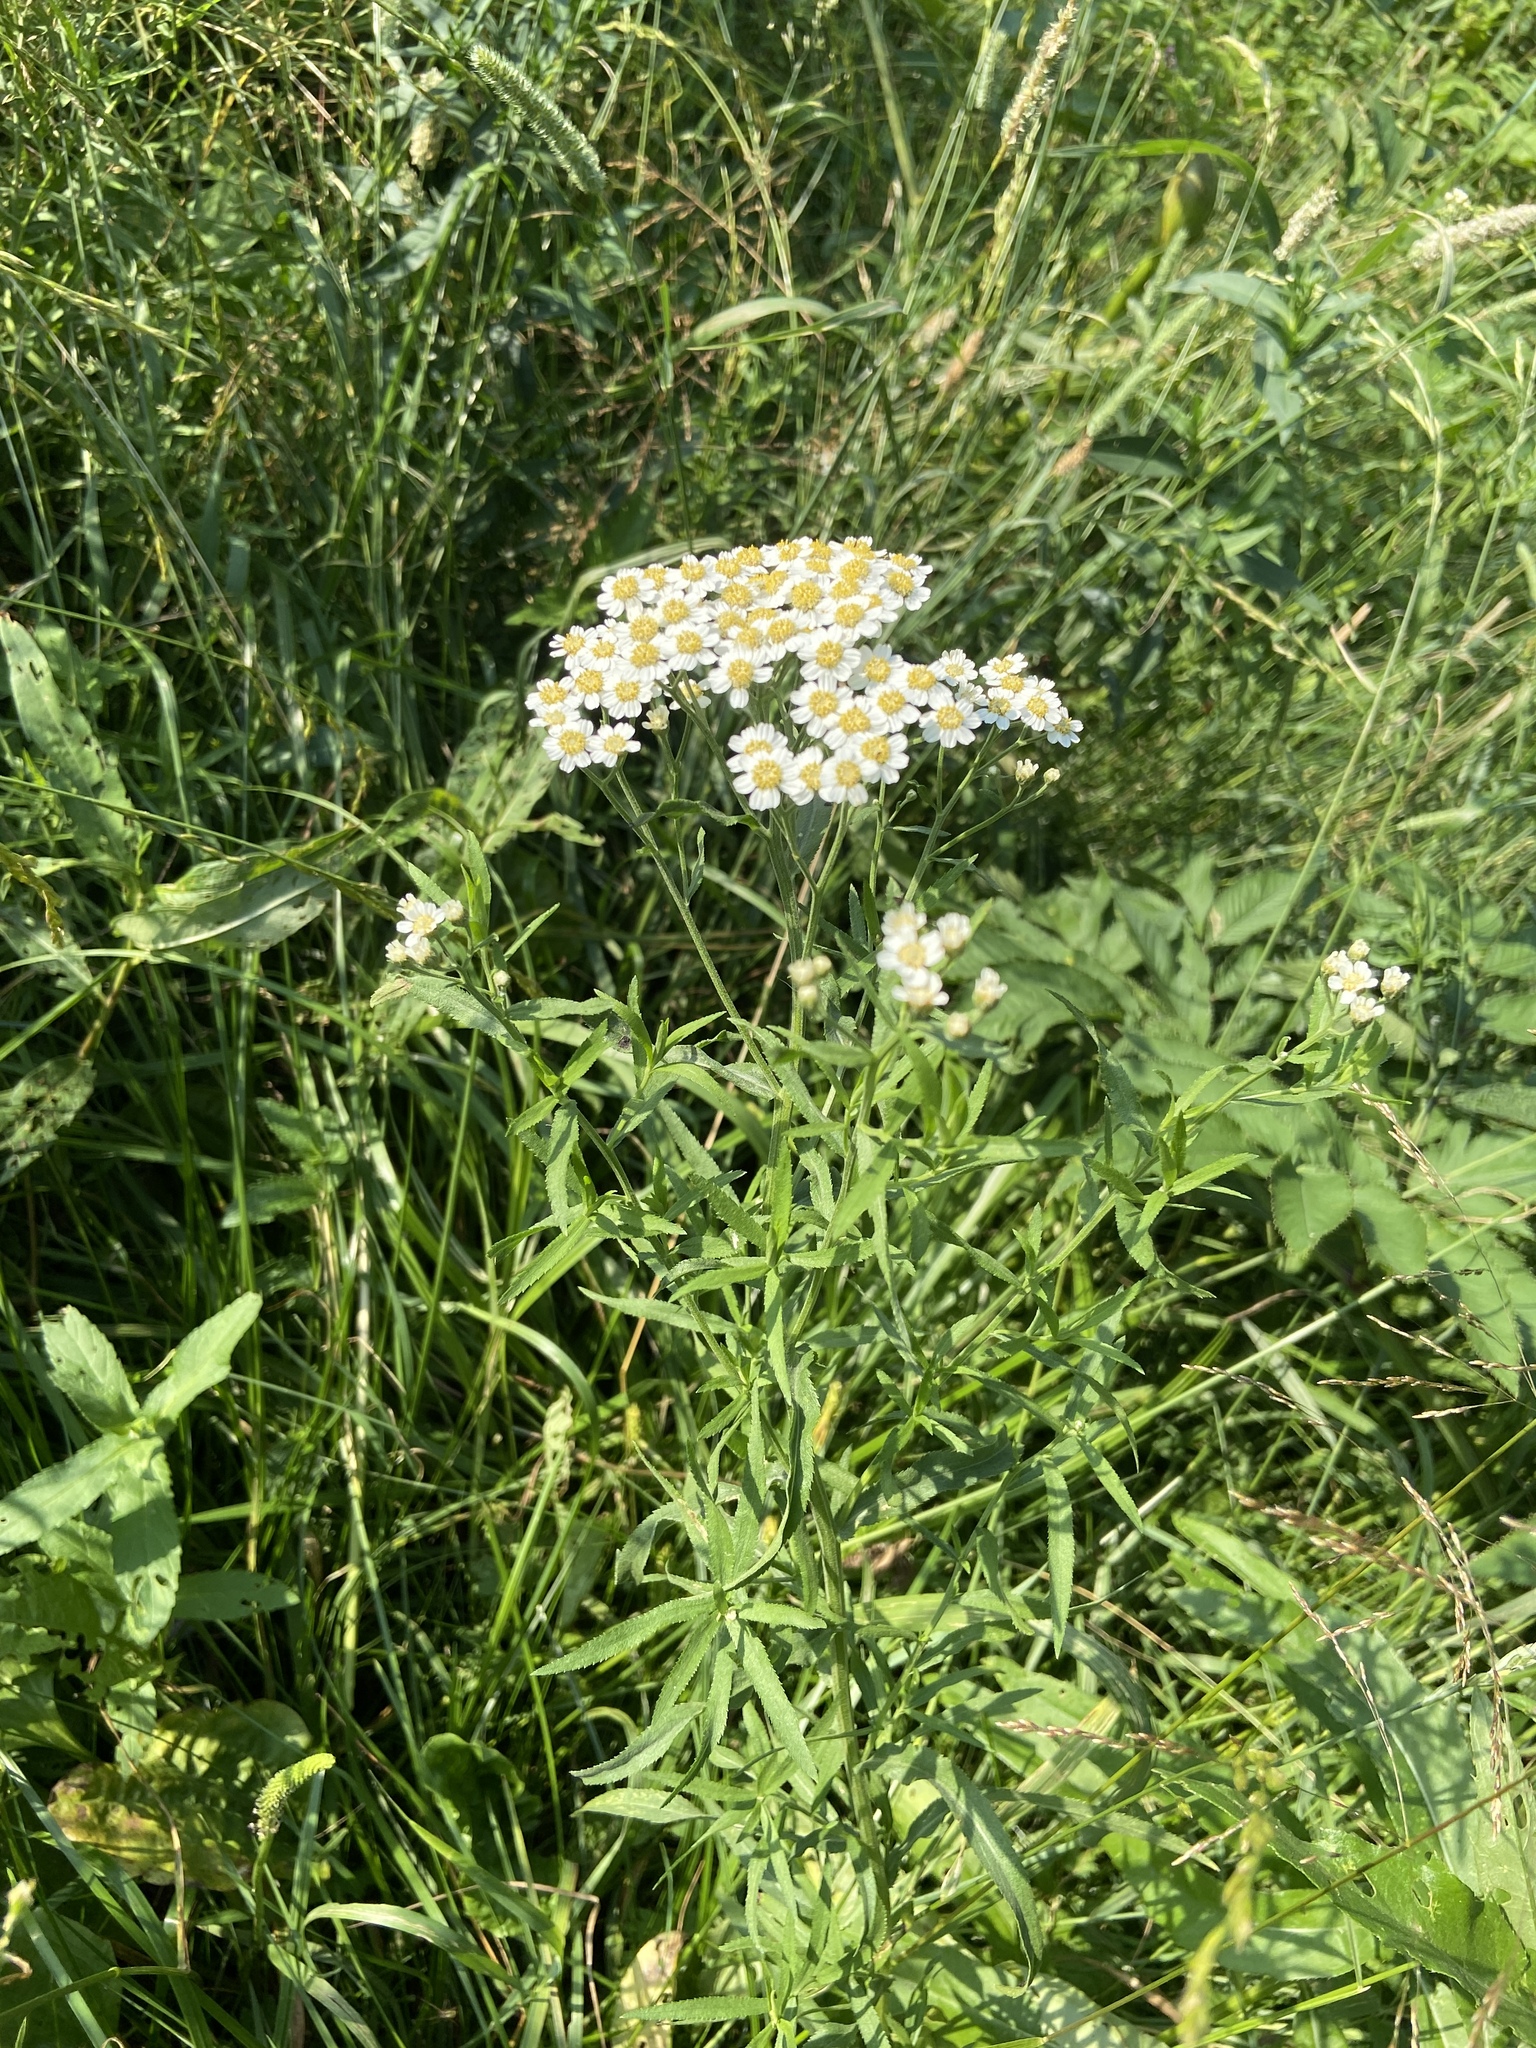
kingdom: Plantae
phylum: Tracheophyta
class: Magnoliopsida
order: Asterales
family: Asteraceae
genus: Achillea
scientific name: Achillea salicifolia
